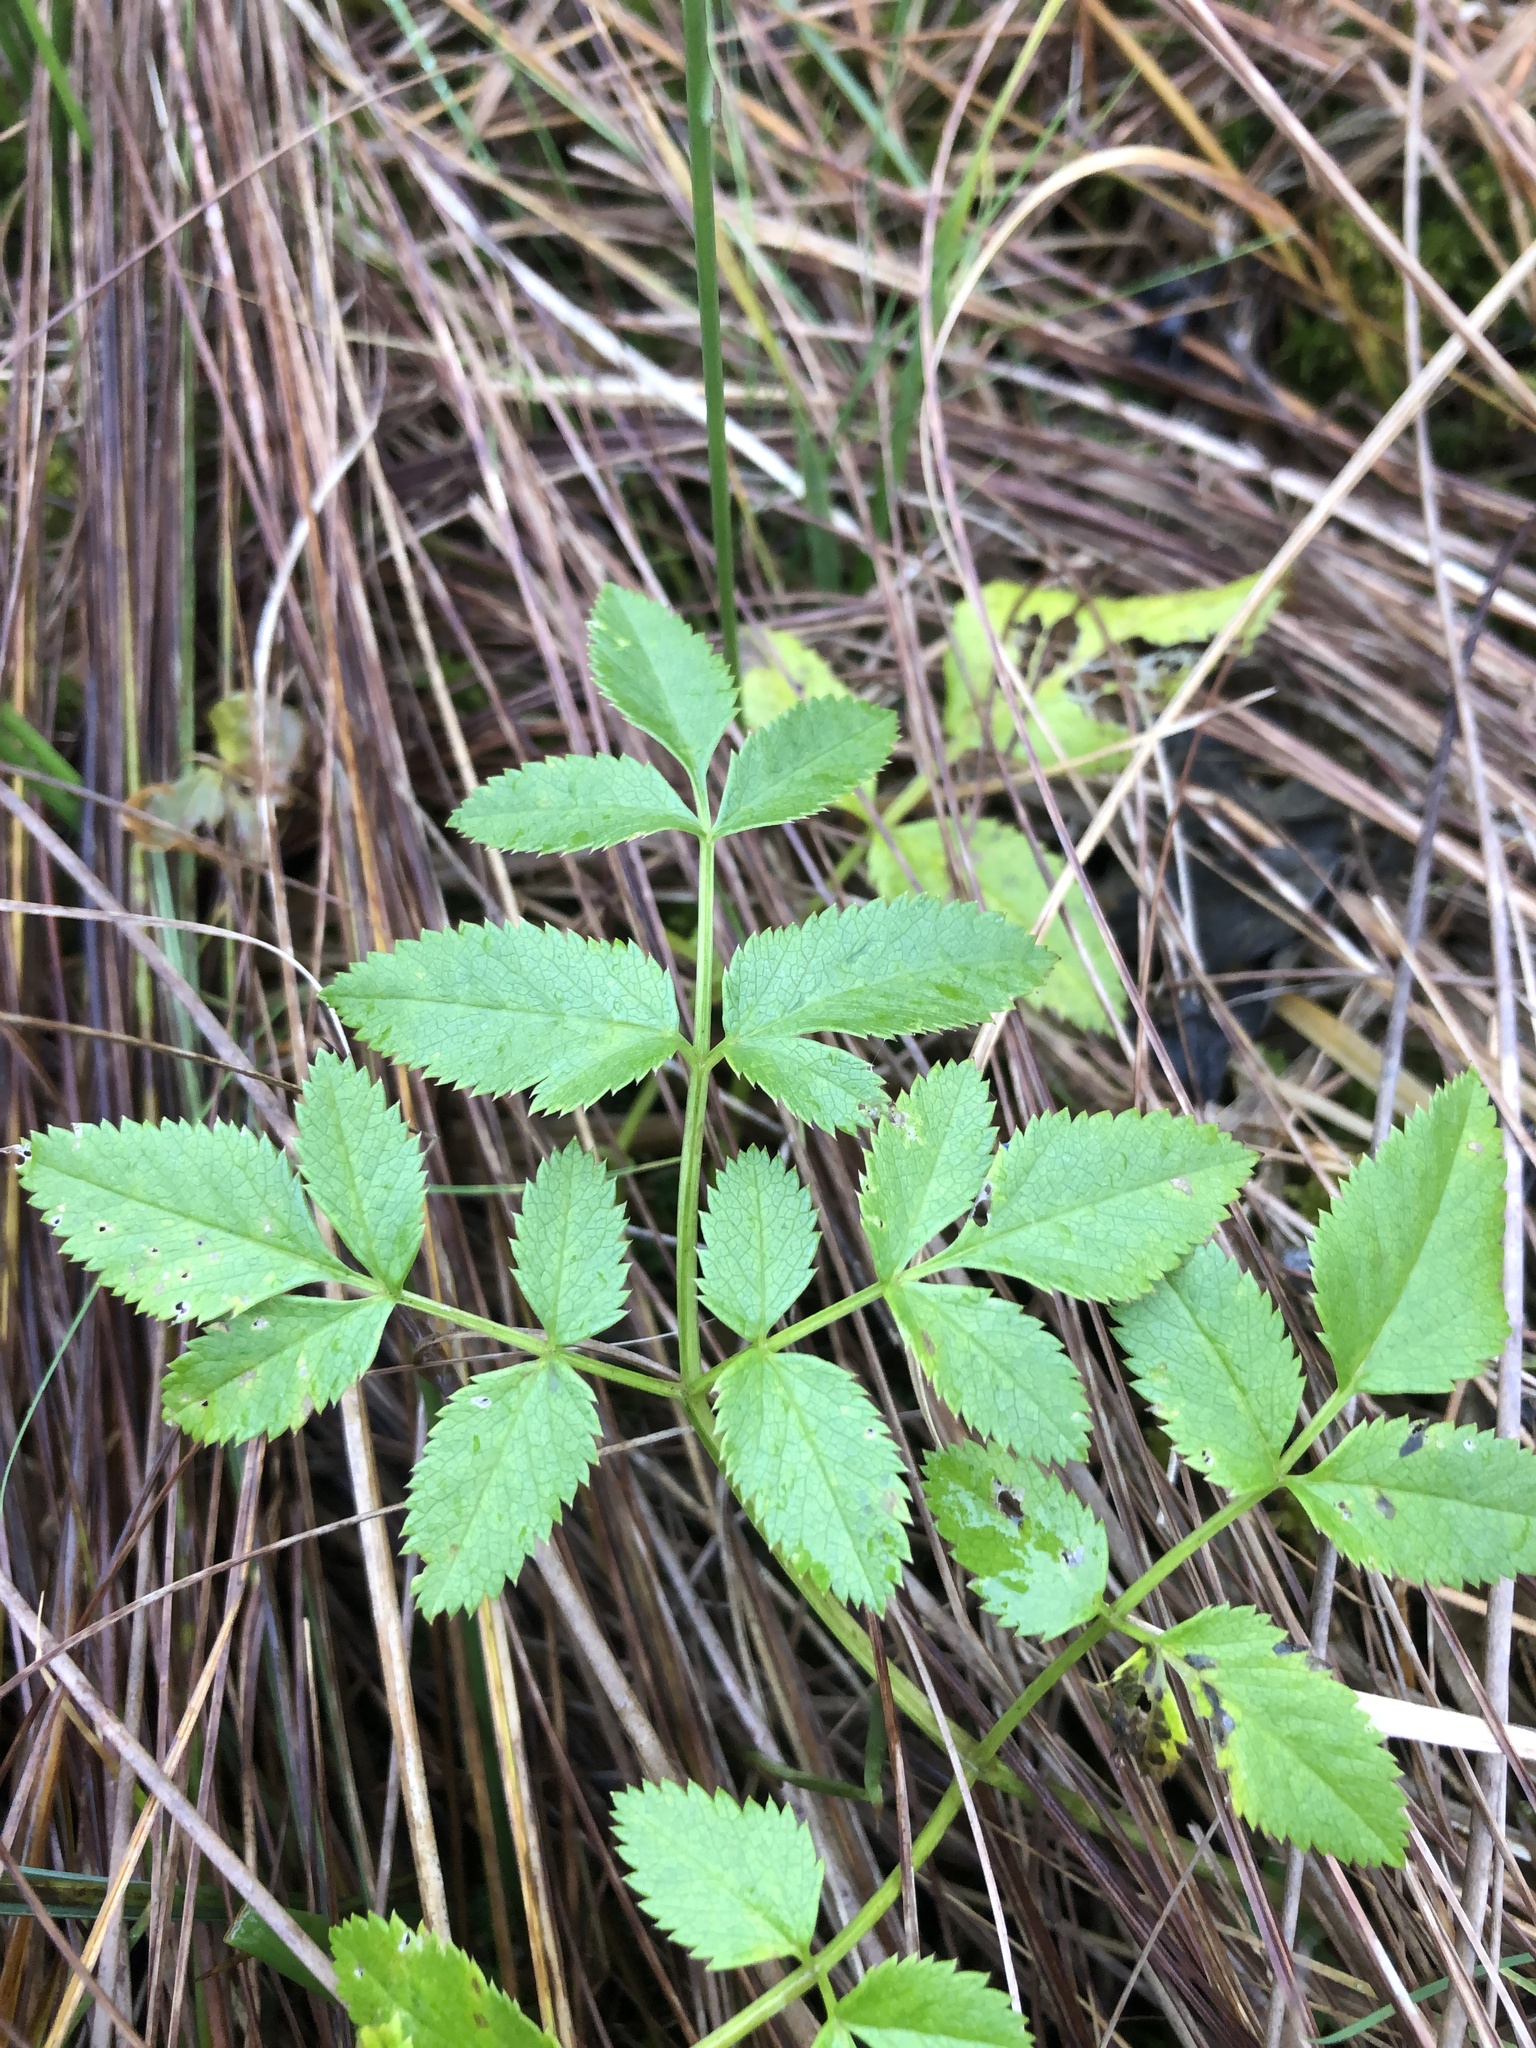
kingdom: Plantae
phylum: Tracheophyta
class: Magnoliopsida
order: Apiales
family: Apiaceae
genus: Angelica
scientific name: Angelica sylvestris
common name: Wild angelica
